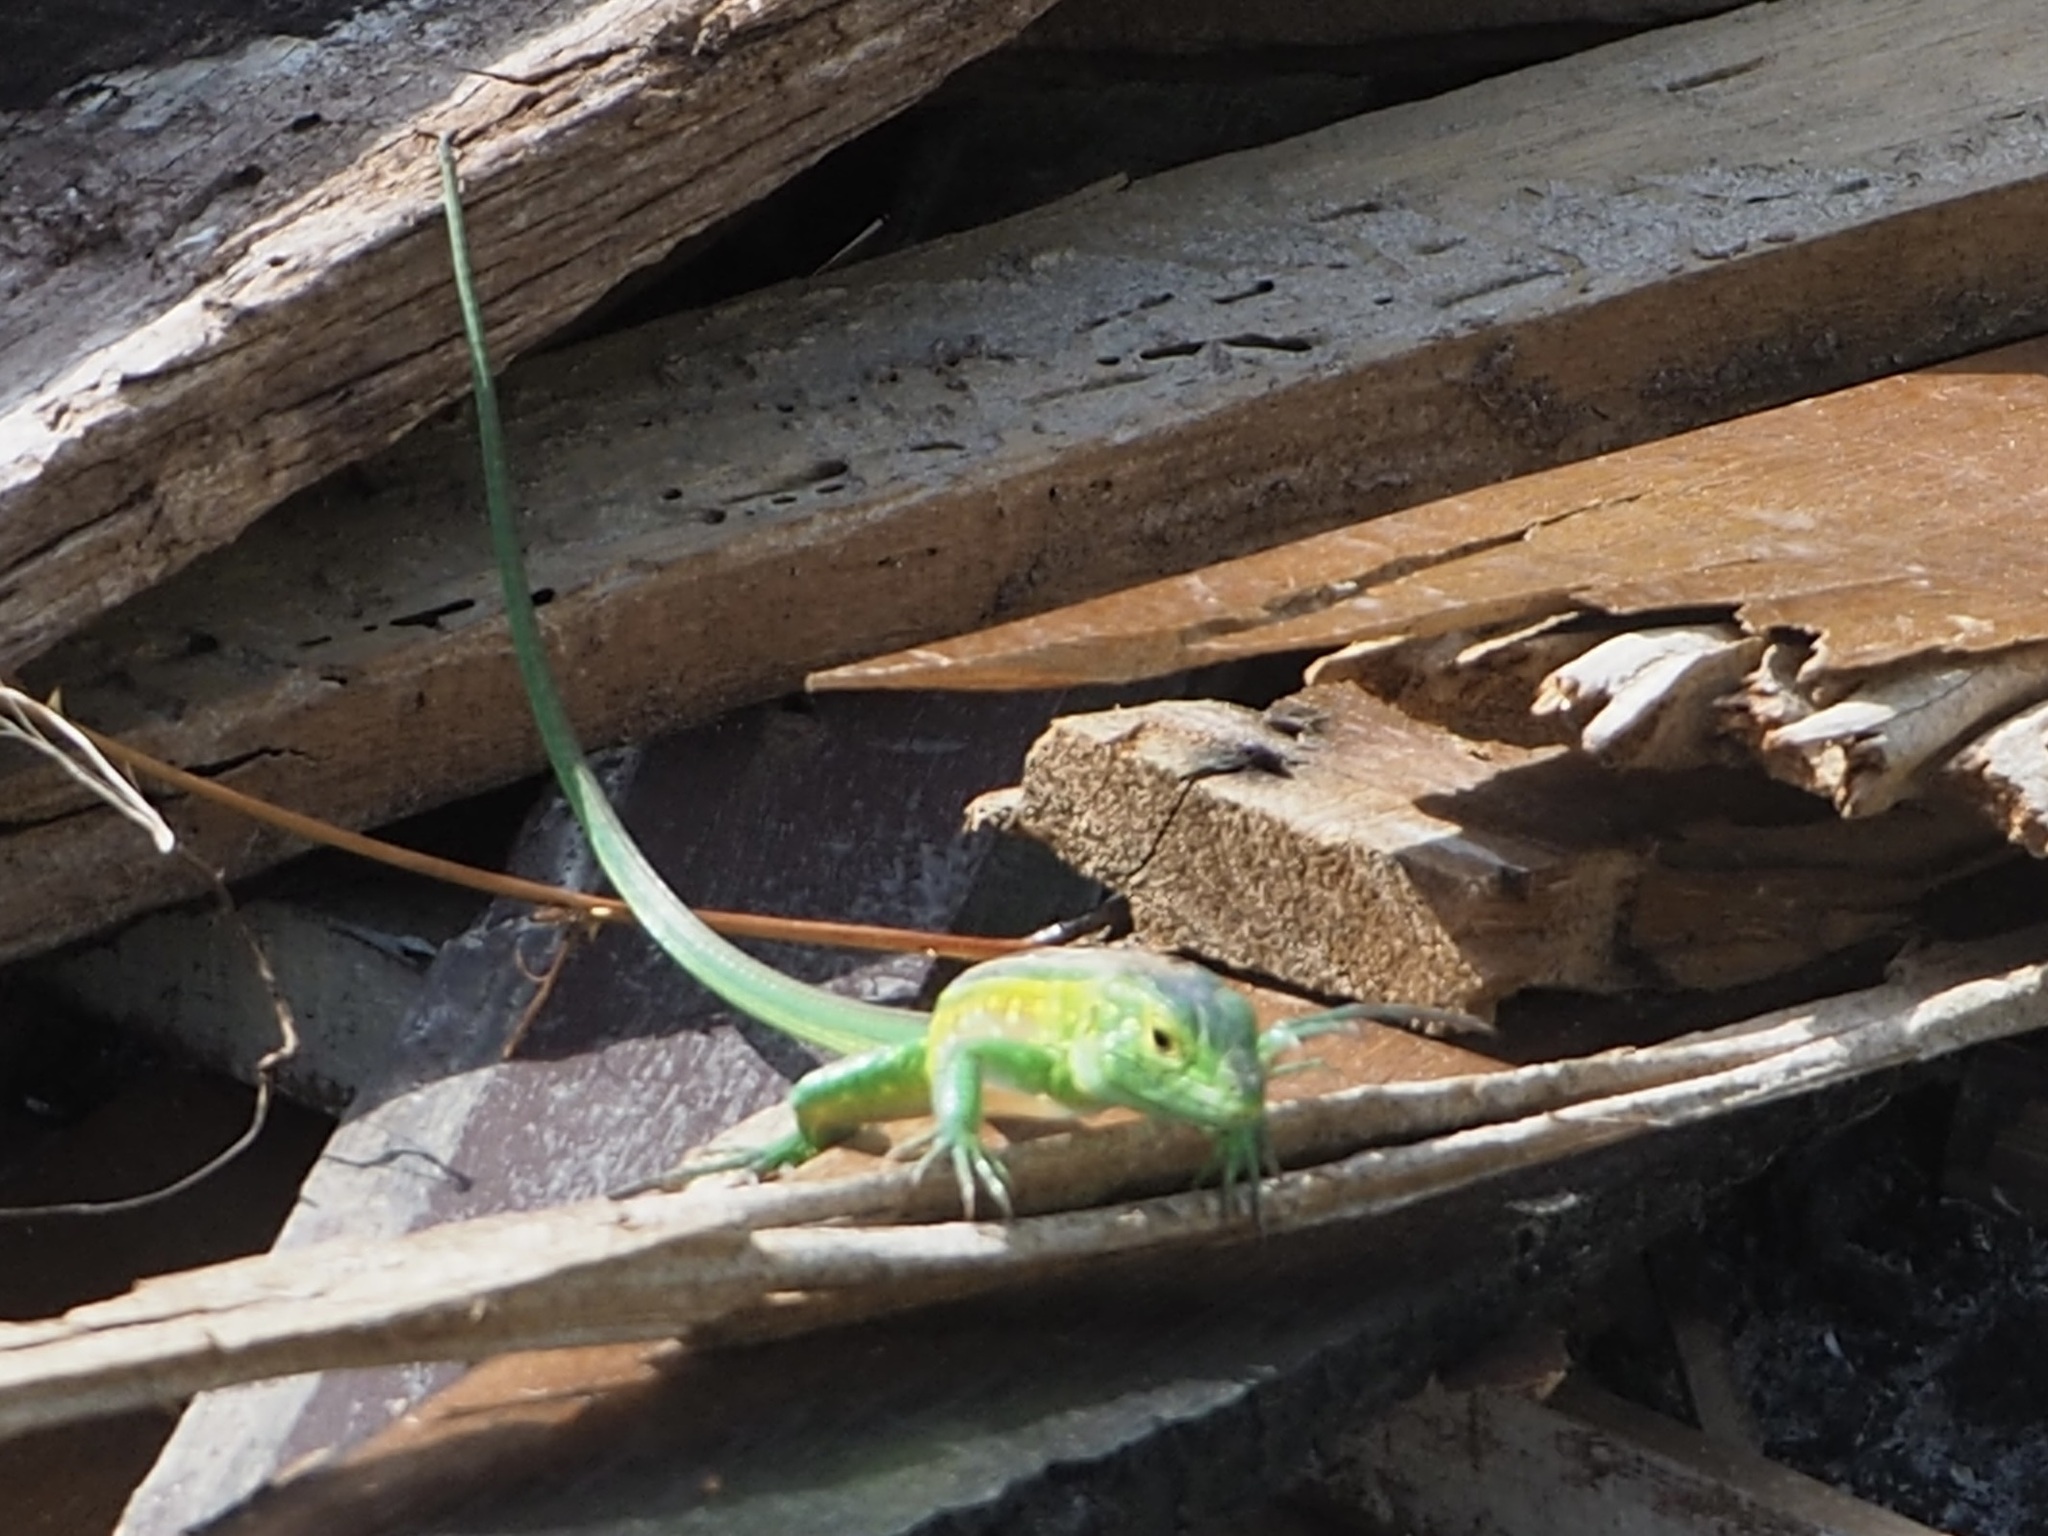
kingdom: Animalia
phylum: Chordata
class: Squamata
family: Teiidae
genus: Cnemidophorus
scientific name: Cnemidophorus lemniscatus
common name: Rainbow whiptail
